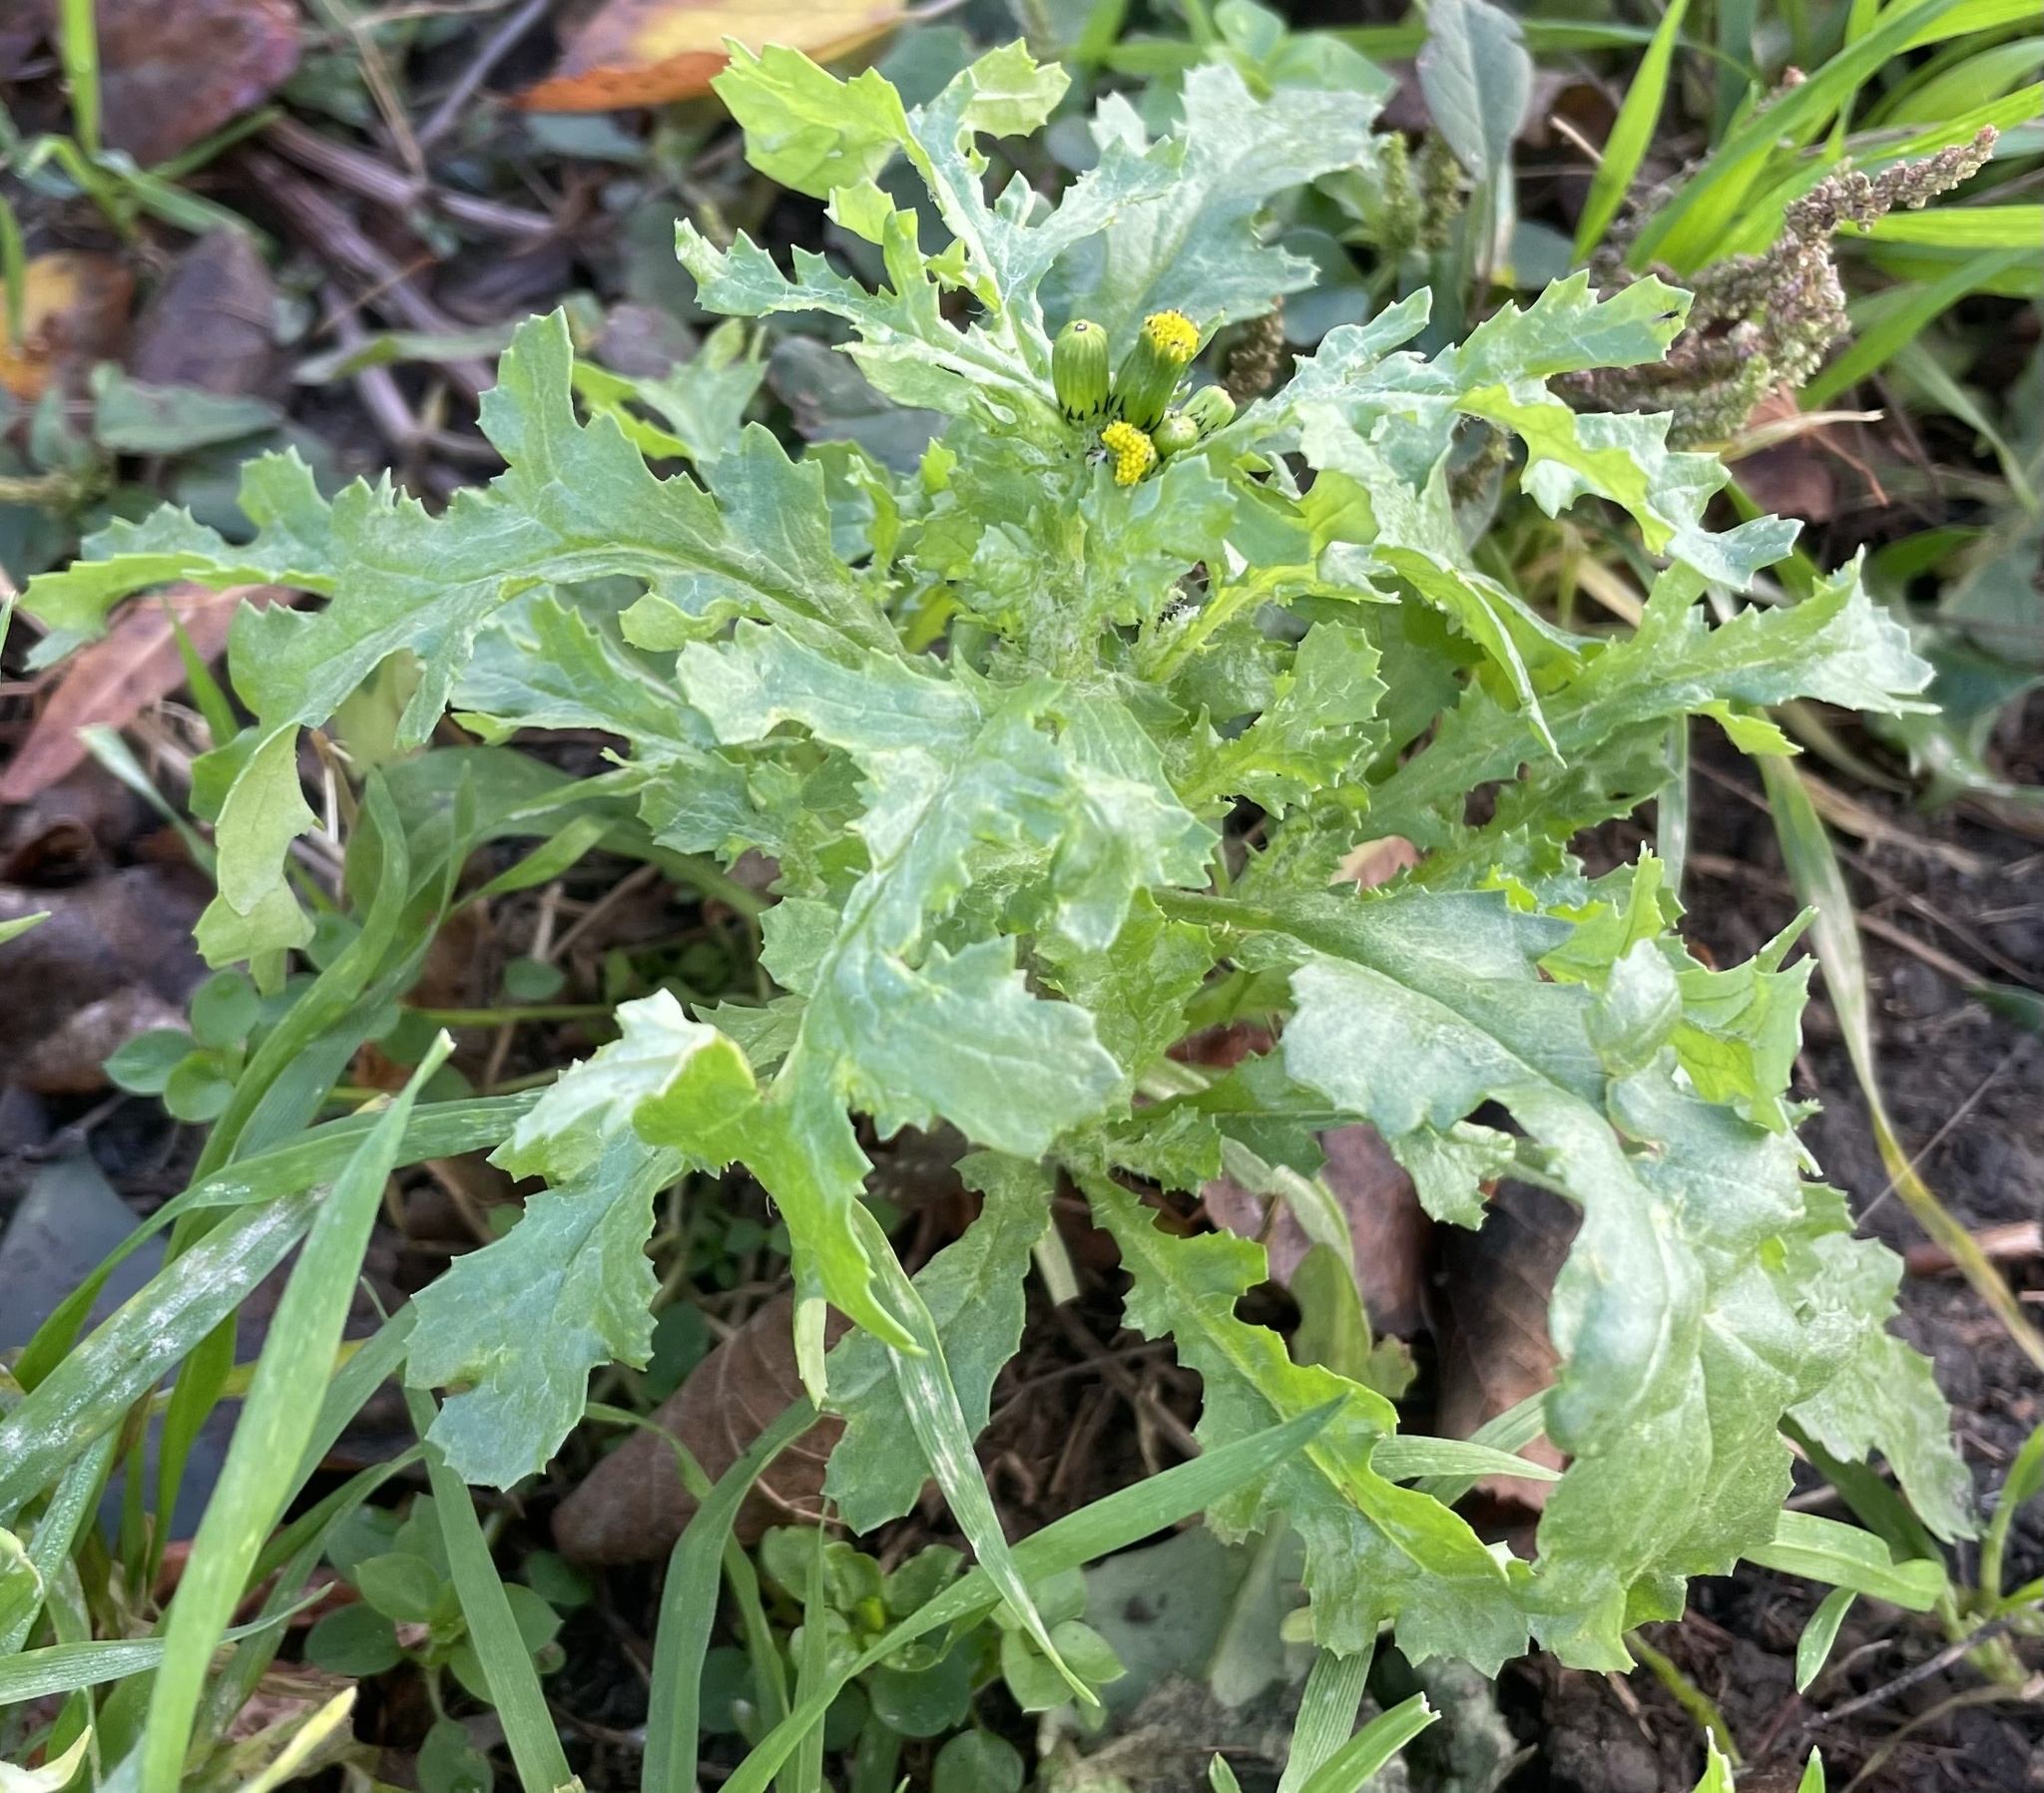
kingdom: Plantae
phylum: Tracheophyta
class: Magnoliopsida
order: Asterales
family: Asteraceae
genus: Senecio
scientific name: Senecio vulgaris
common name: Old-man-in-the-spring
